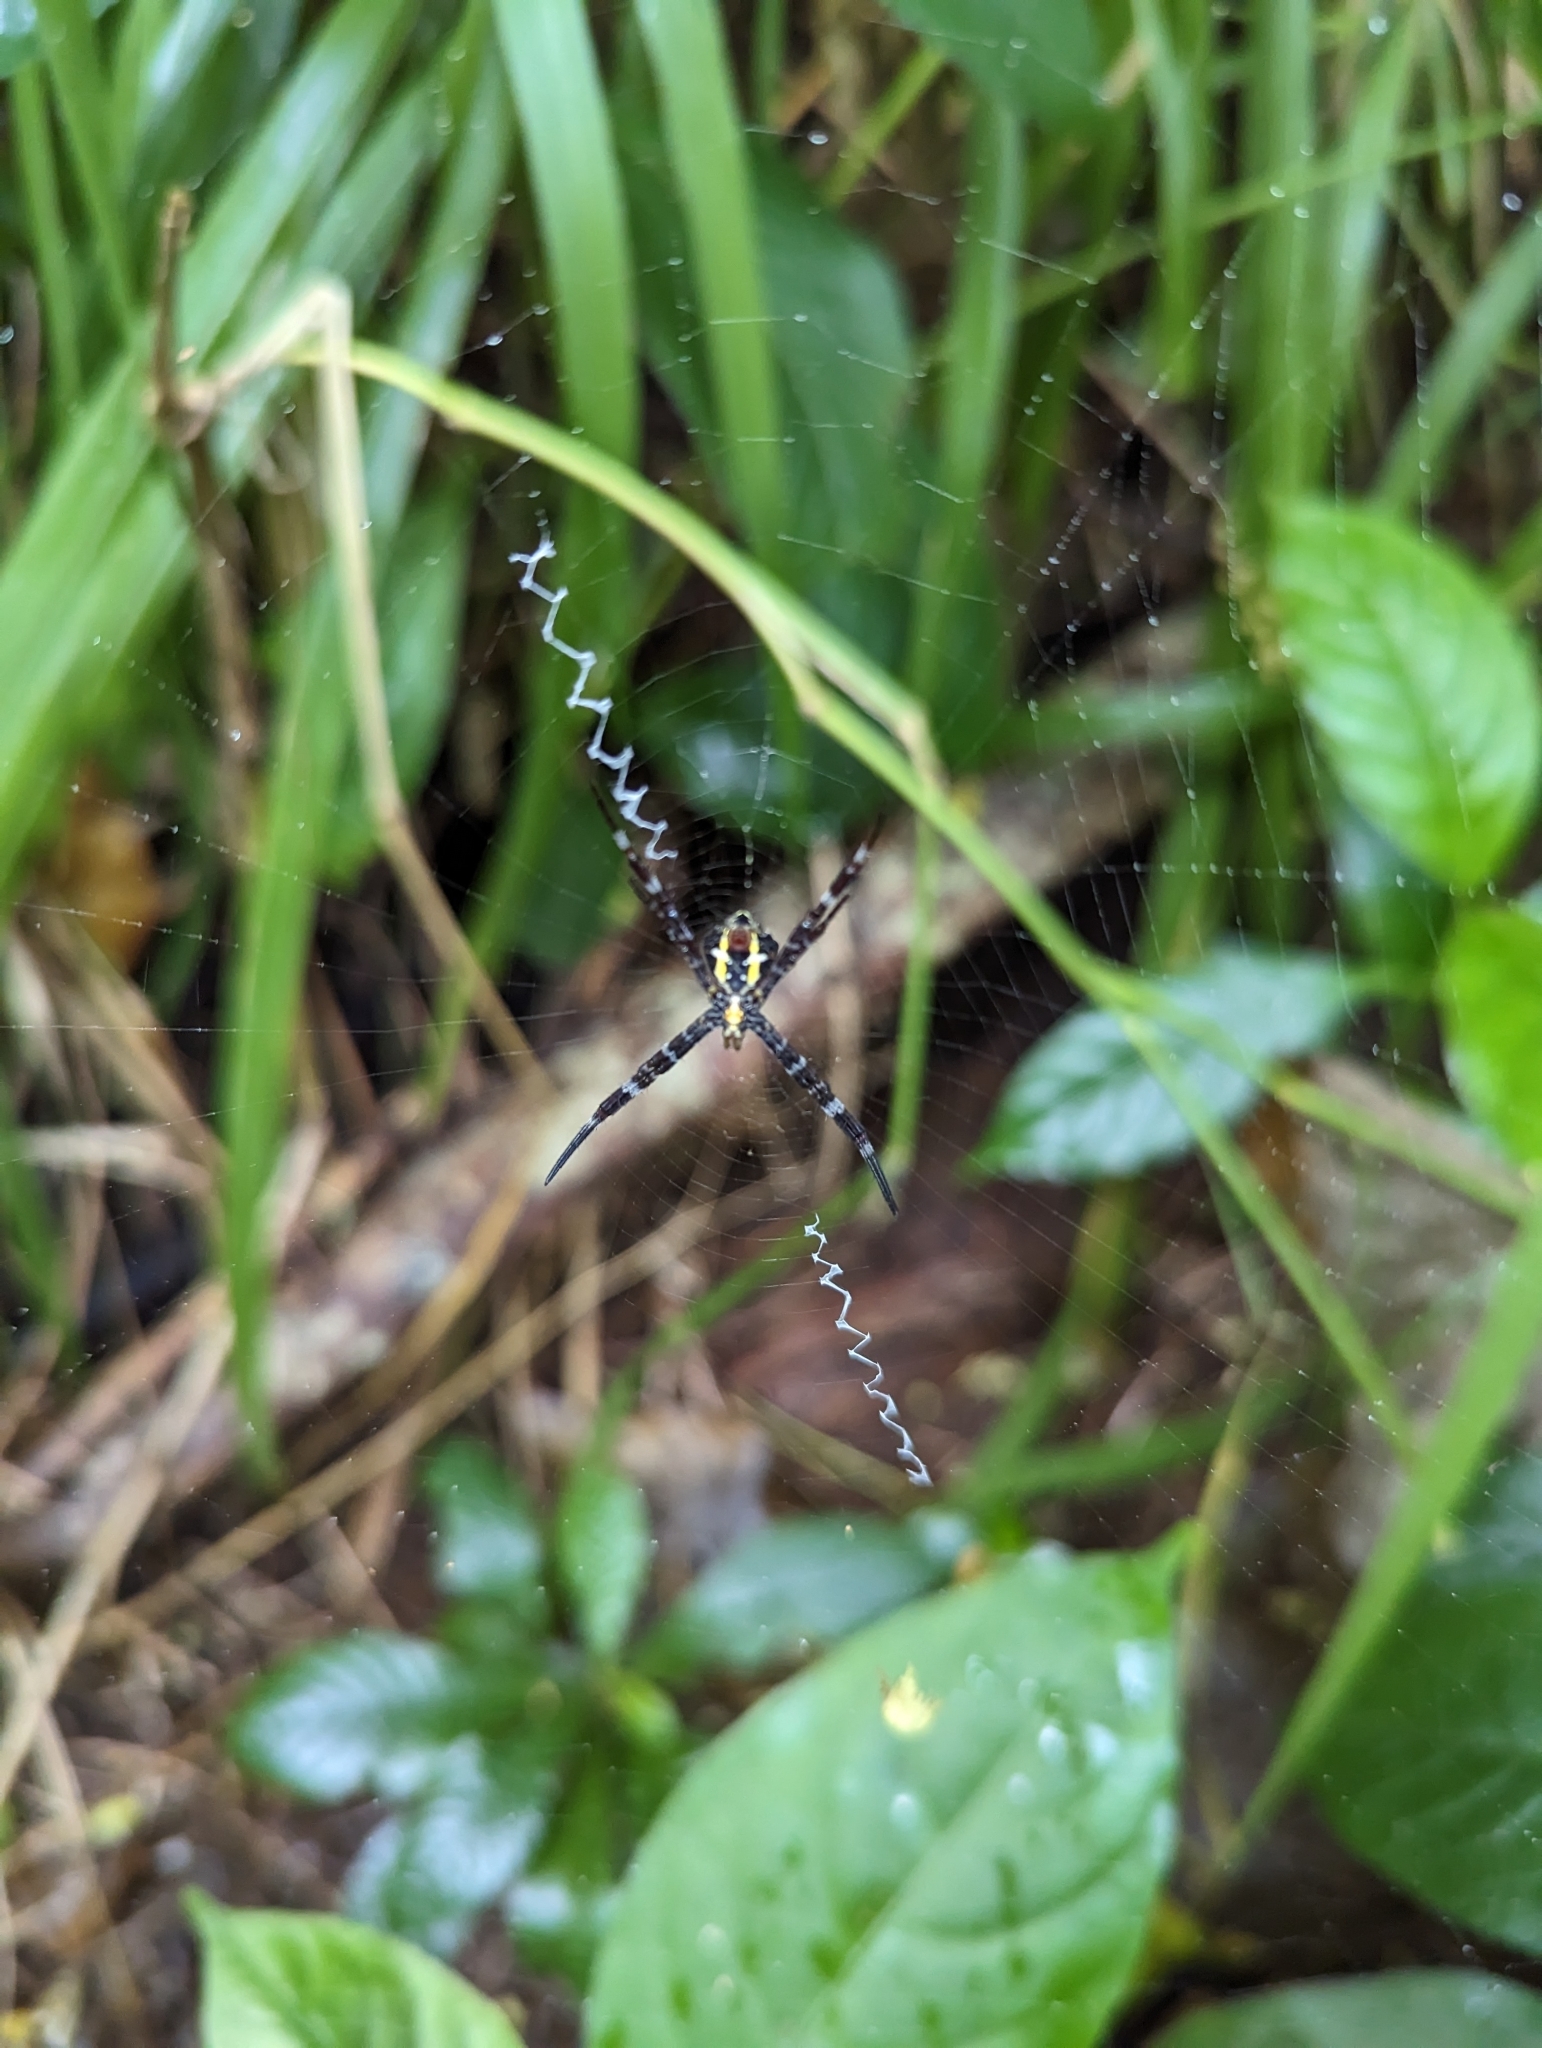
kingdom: Animalia
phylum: Arthropoda
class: Arachnida
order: Araneae
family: Araneidae
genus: Argiope
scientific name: Argiope appensa
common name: Garden spider
